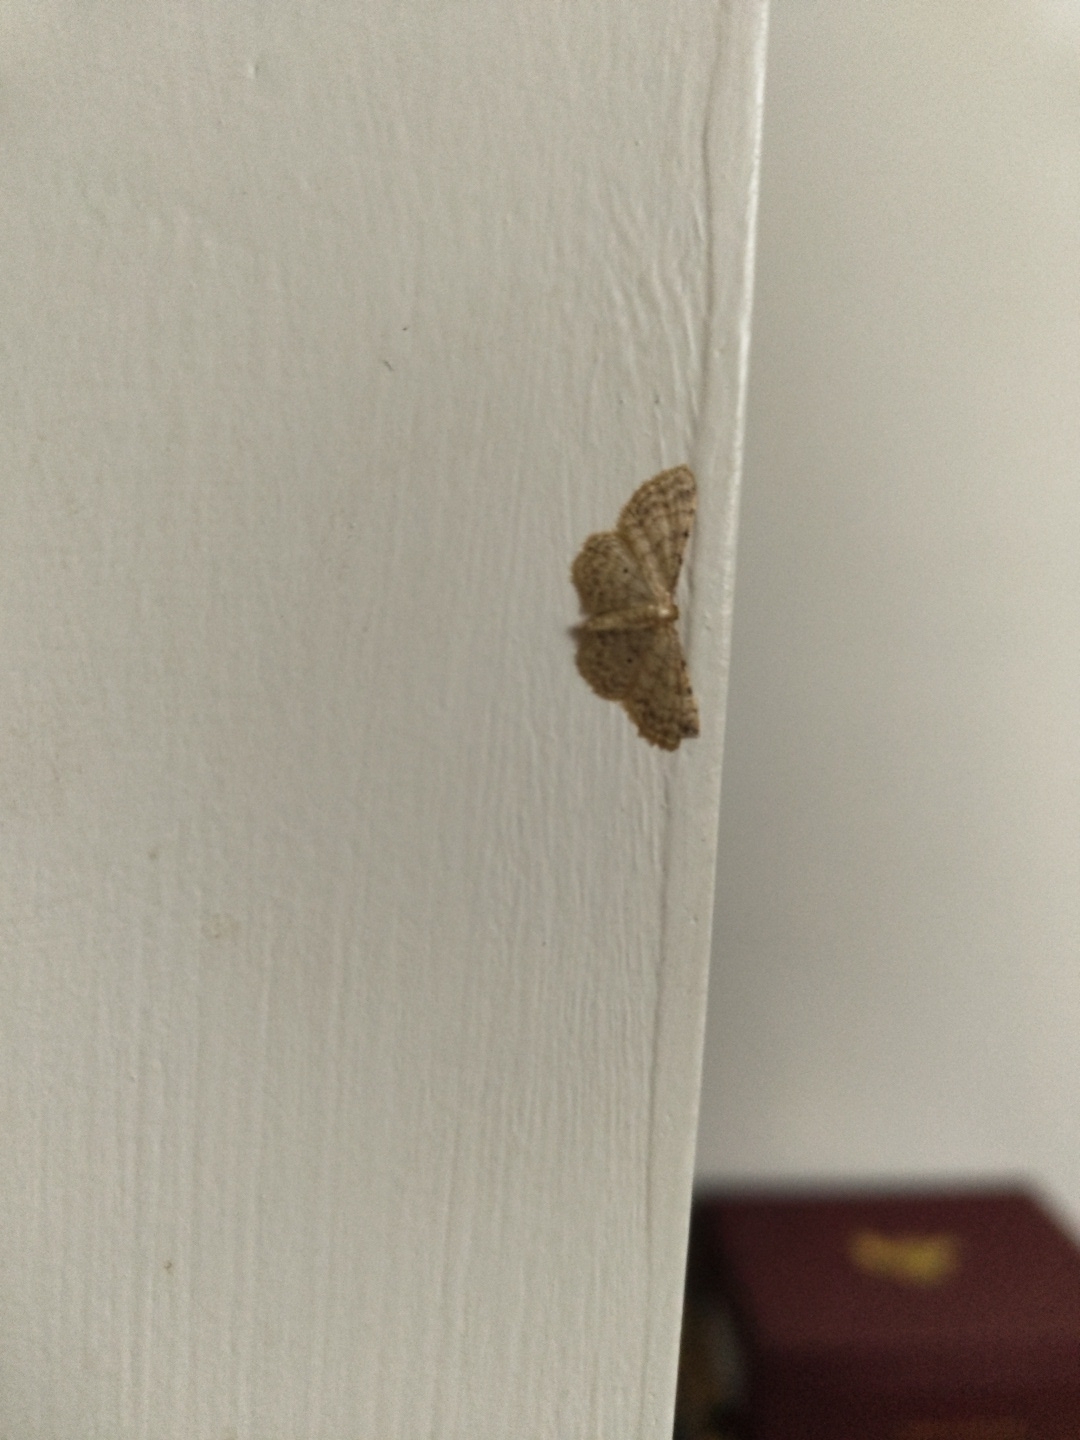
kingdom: Animalia
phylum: Arthropoda
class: Insecta
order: Lepidoptera
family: Geometridae
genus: Idaea
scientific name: Idaea fuscovenosa
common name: Dwarf cream wave
